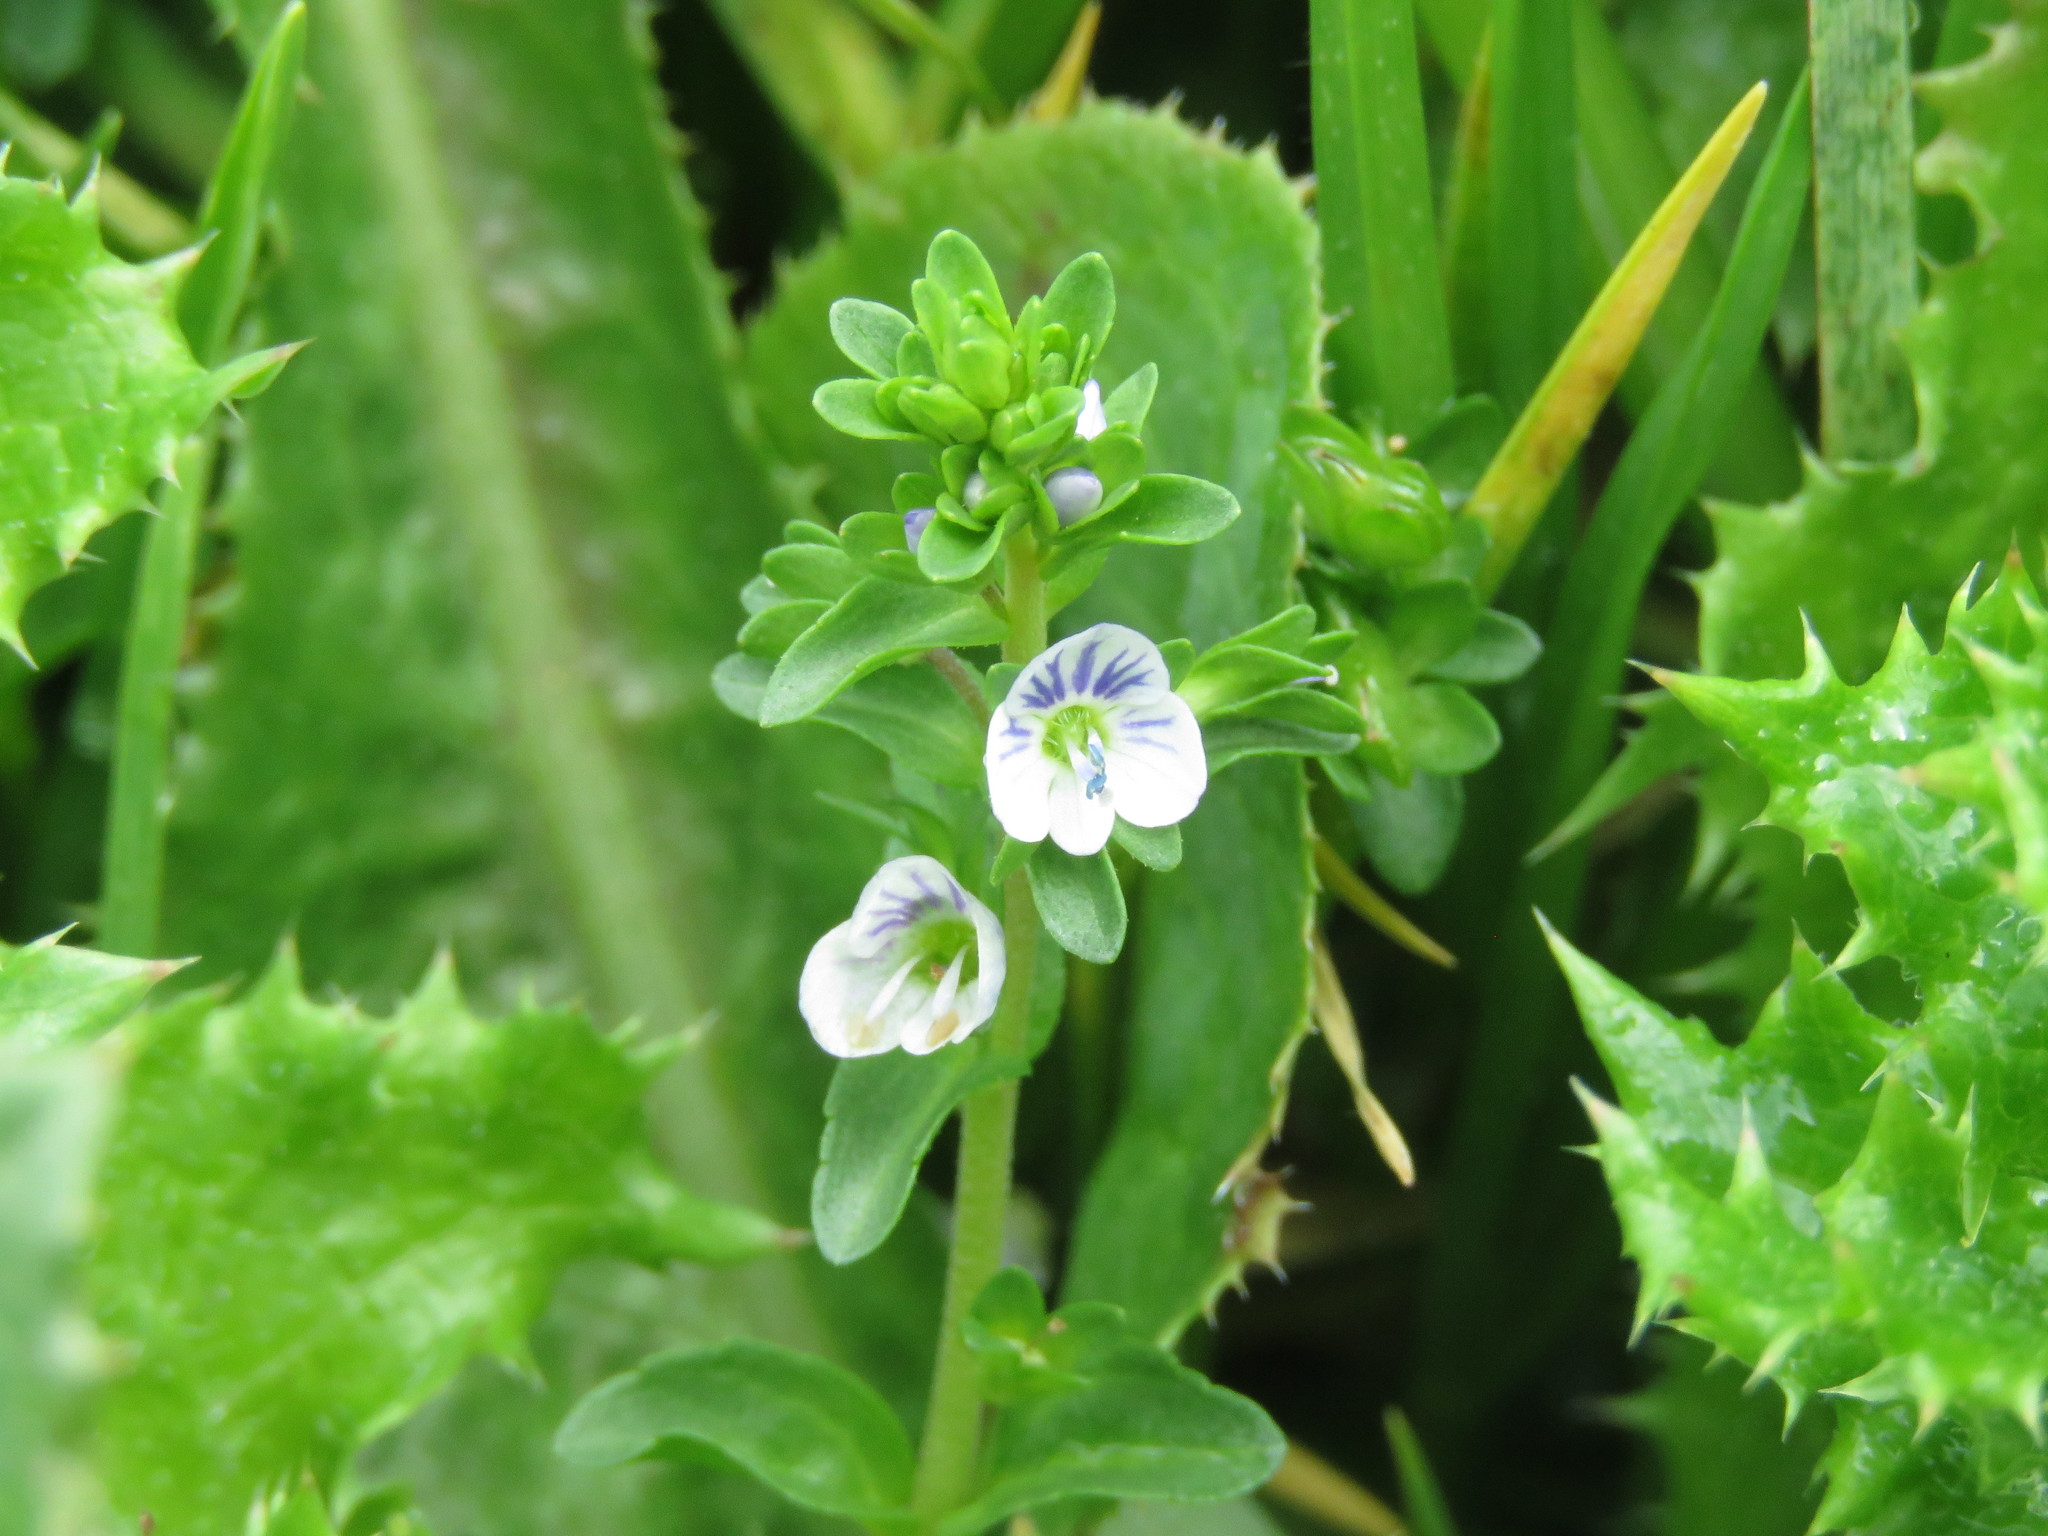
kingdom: Plantae
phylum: Tracheophyta
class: Magnoliopsida
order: Lamiales
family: Plantaginaceae
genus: Veronica
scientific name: Veronica serpyllifolia
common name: Thyme-leaved speedwell
